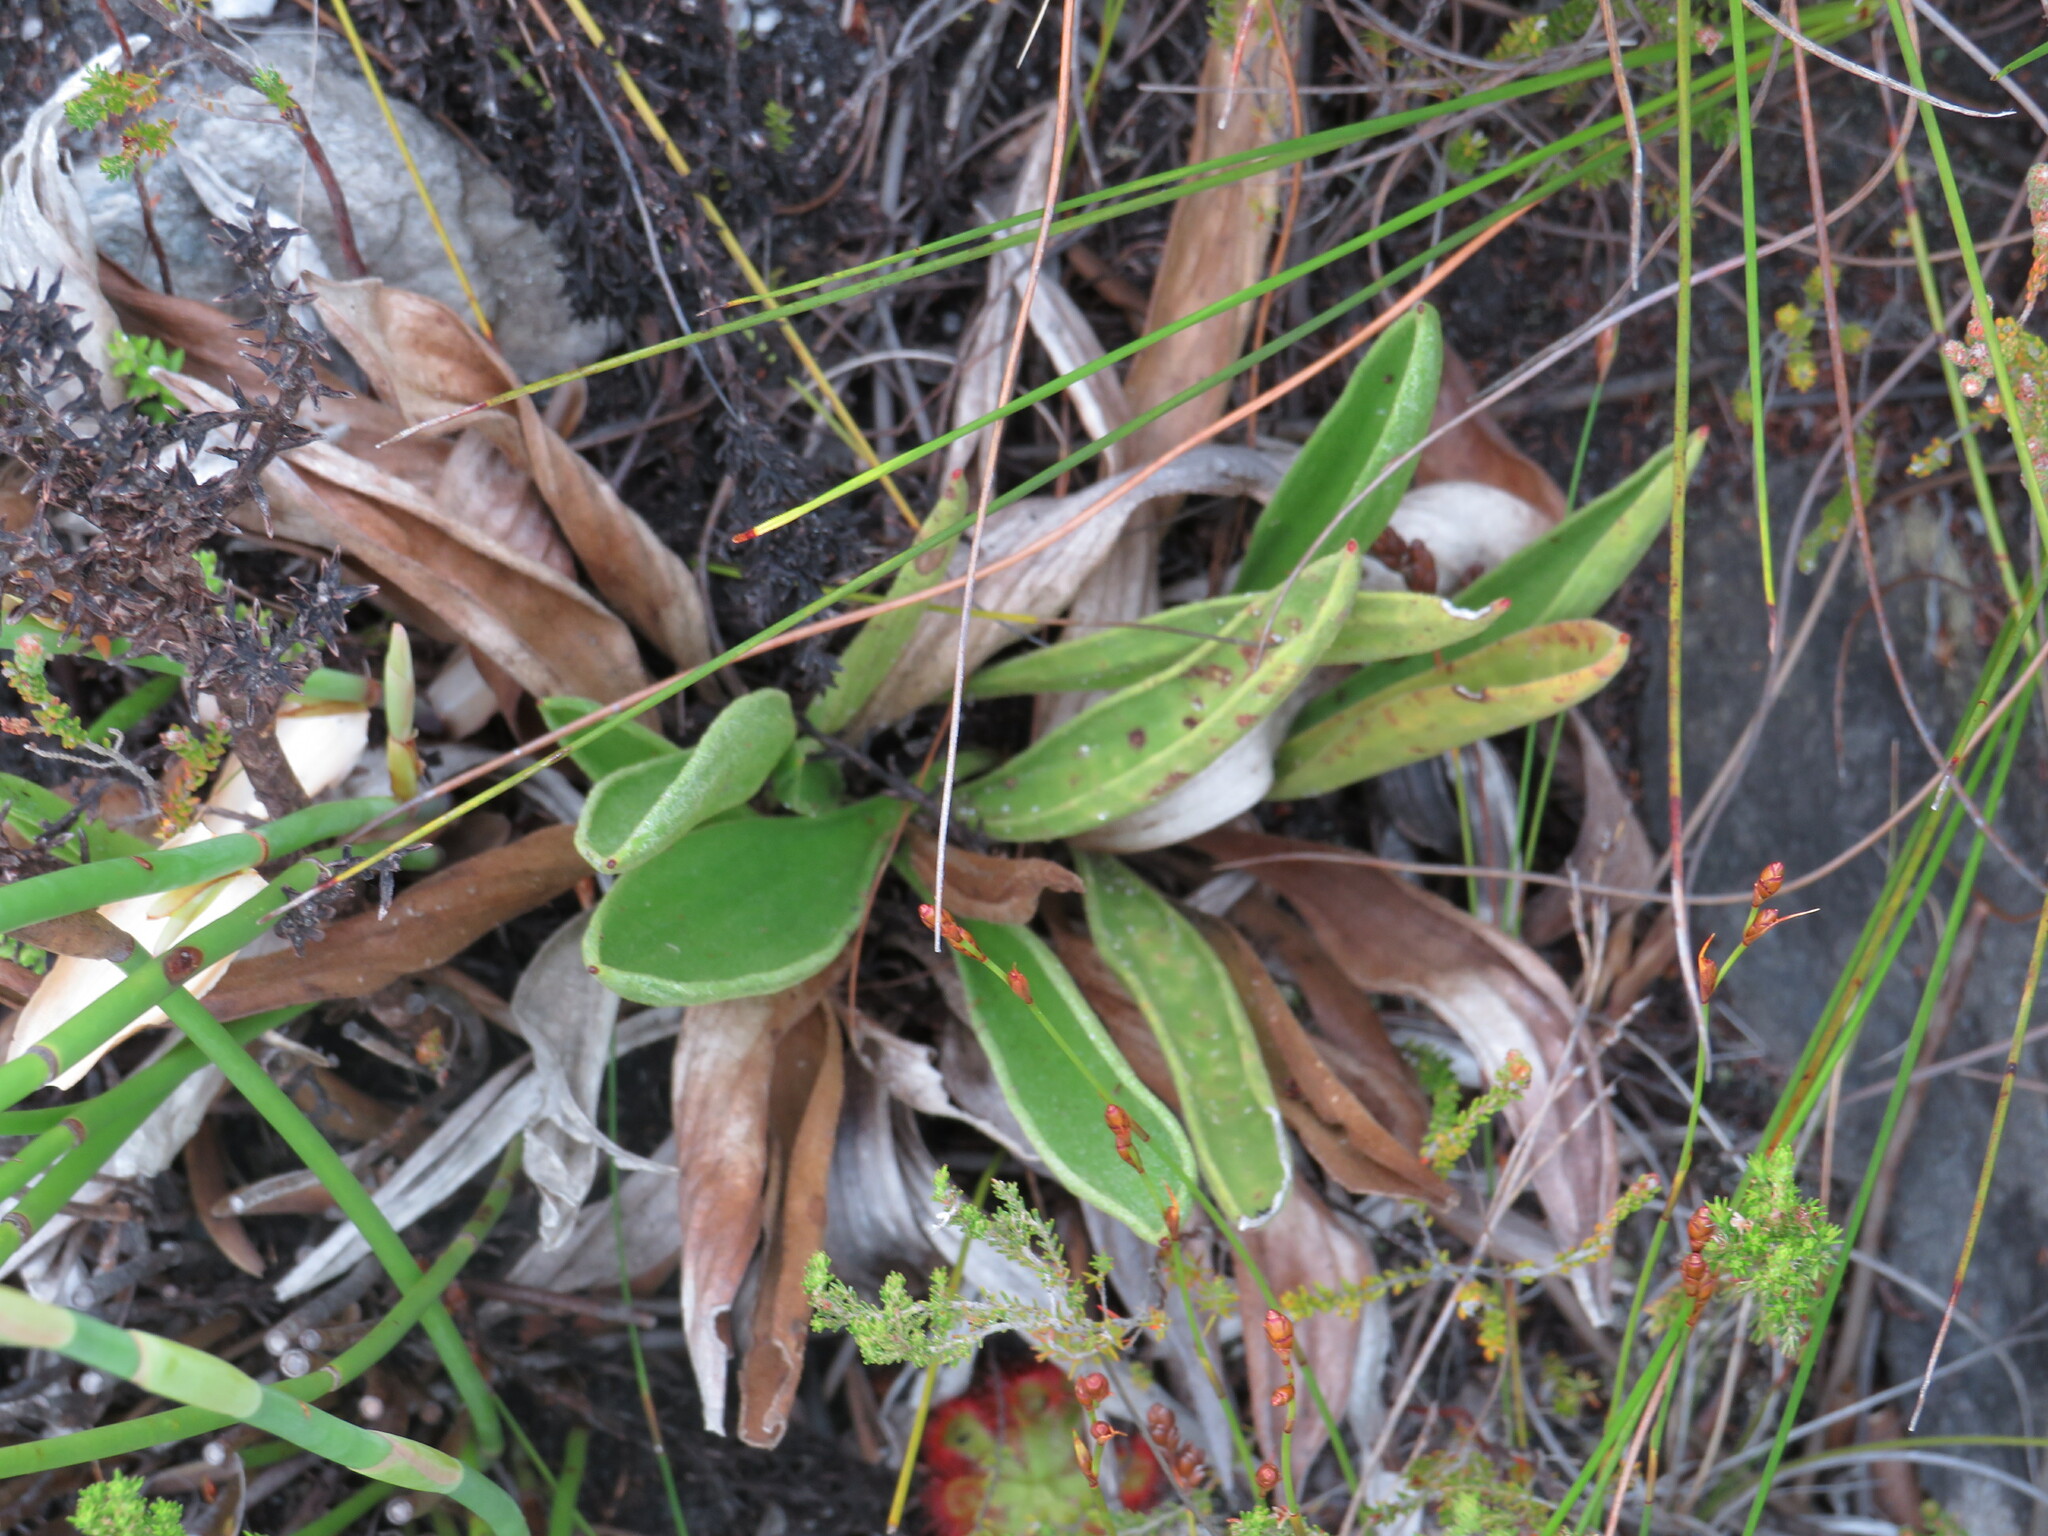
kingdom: Plantae
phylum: Tracheophyta
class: Magnoliopsida
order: Asterales
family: Asteraceae
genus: Corymbium
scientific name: Corymbium congestum
